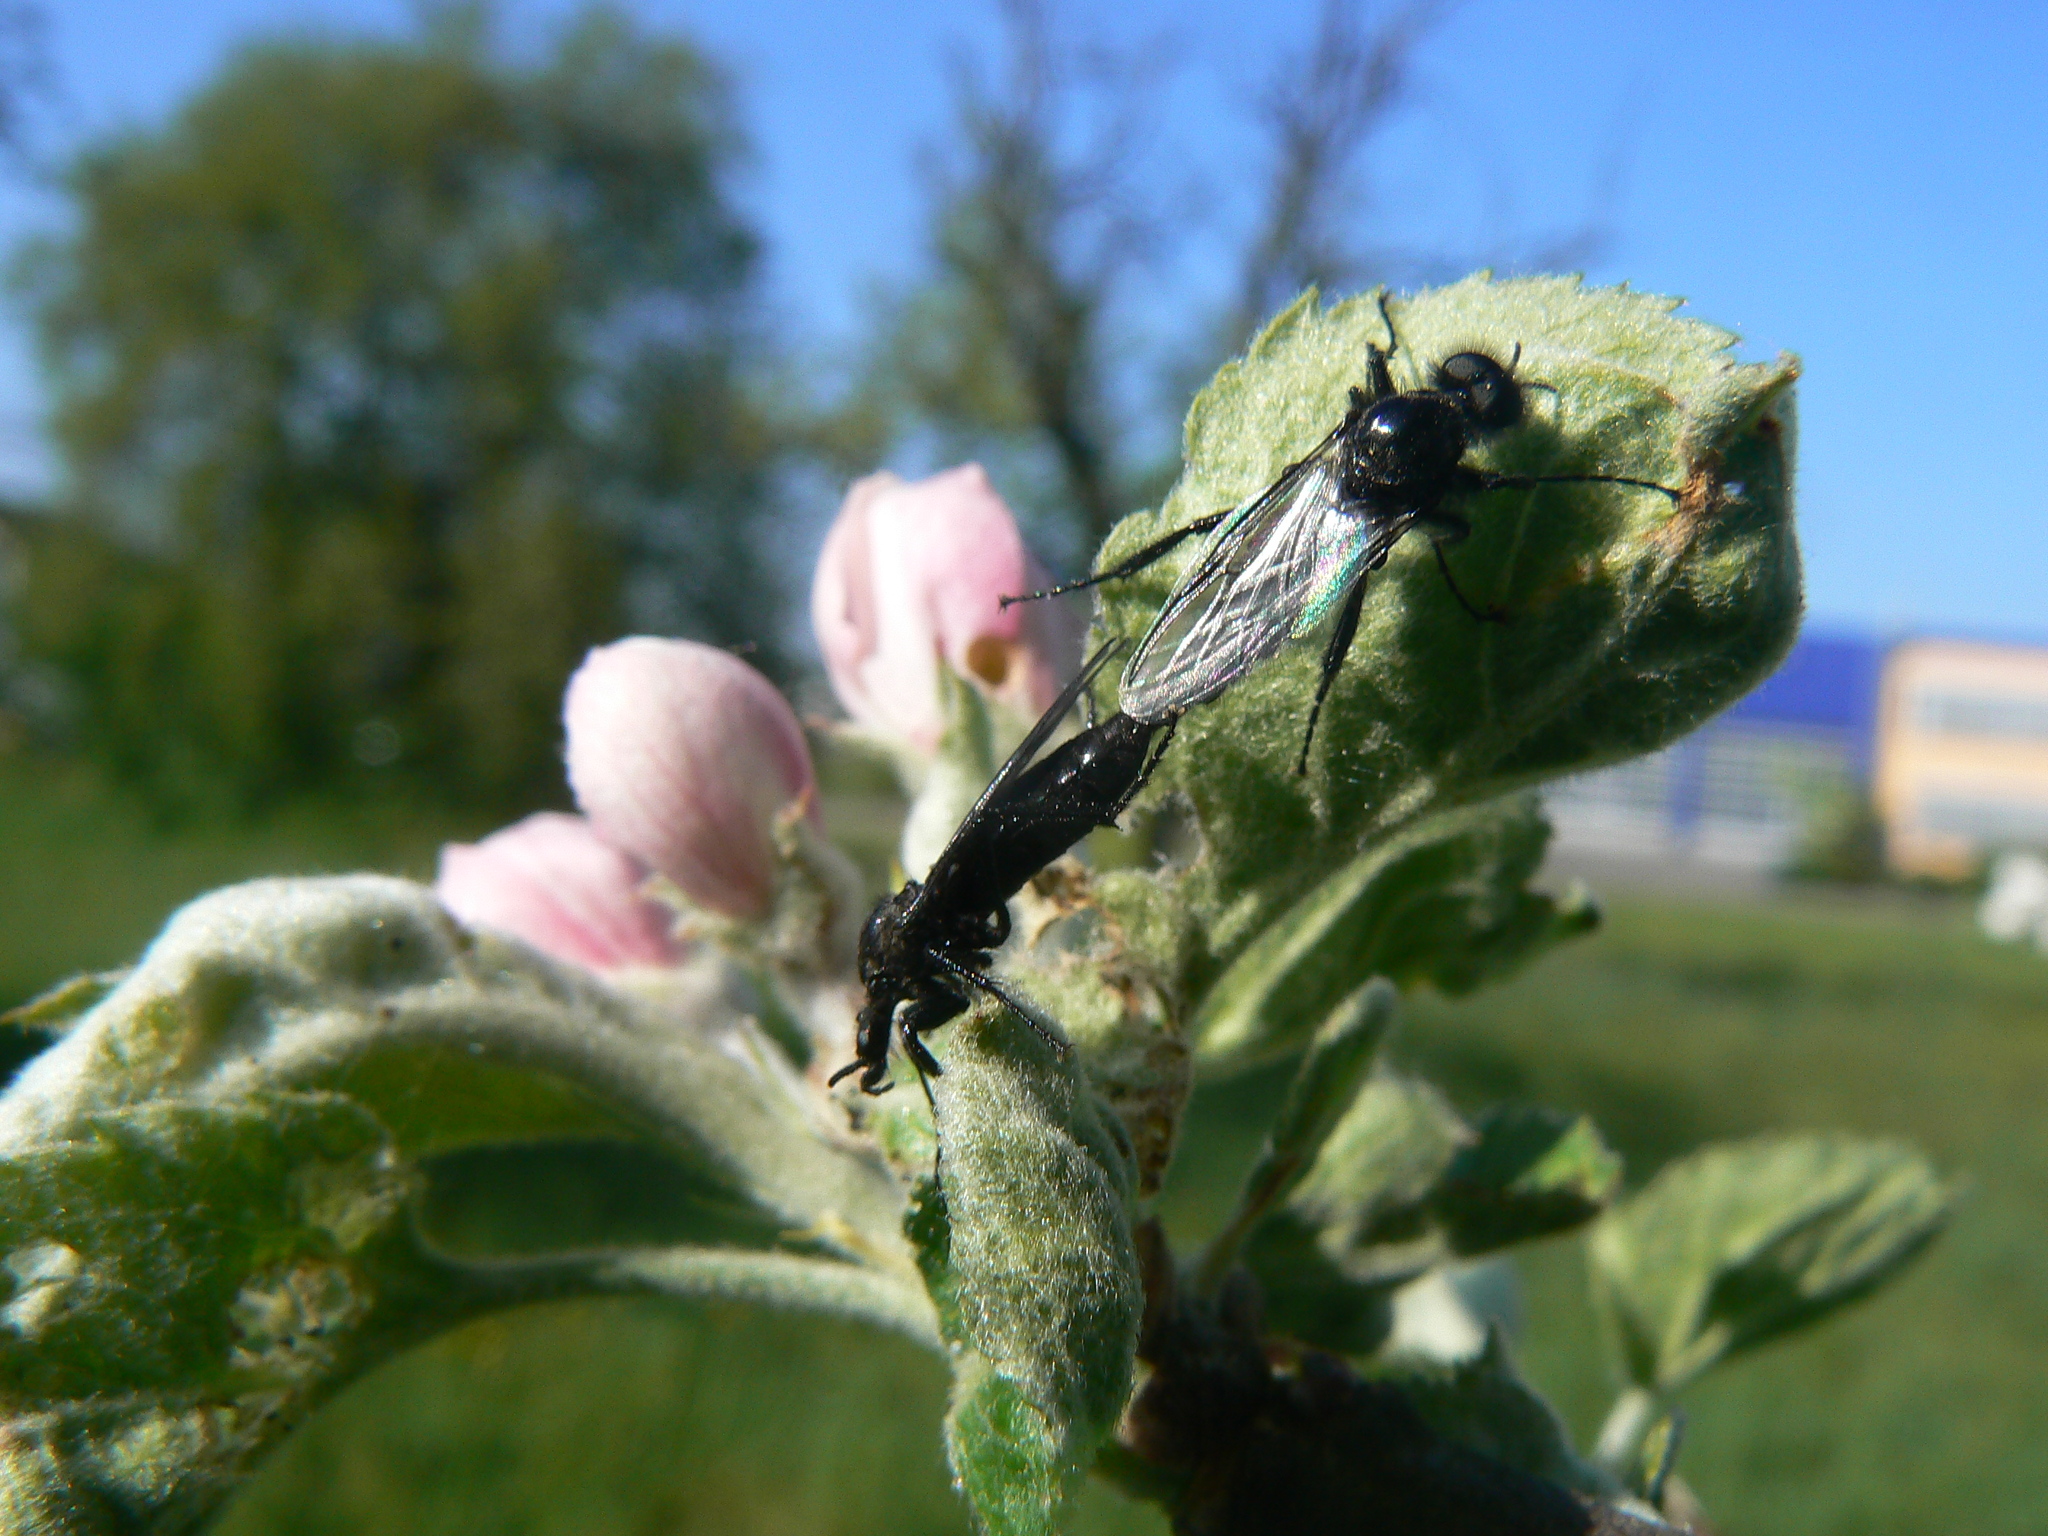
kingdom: Animalia
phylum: Arthropoda
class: Insecta
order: Diptera
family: Bibionidae
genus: Bibio
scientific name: Bibio marci
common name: St marks fly
